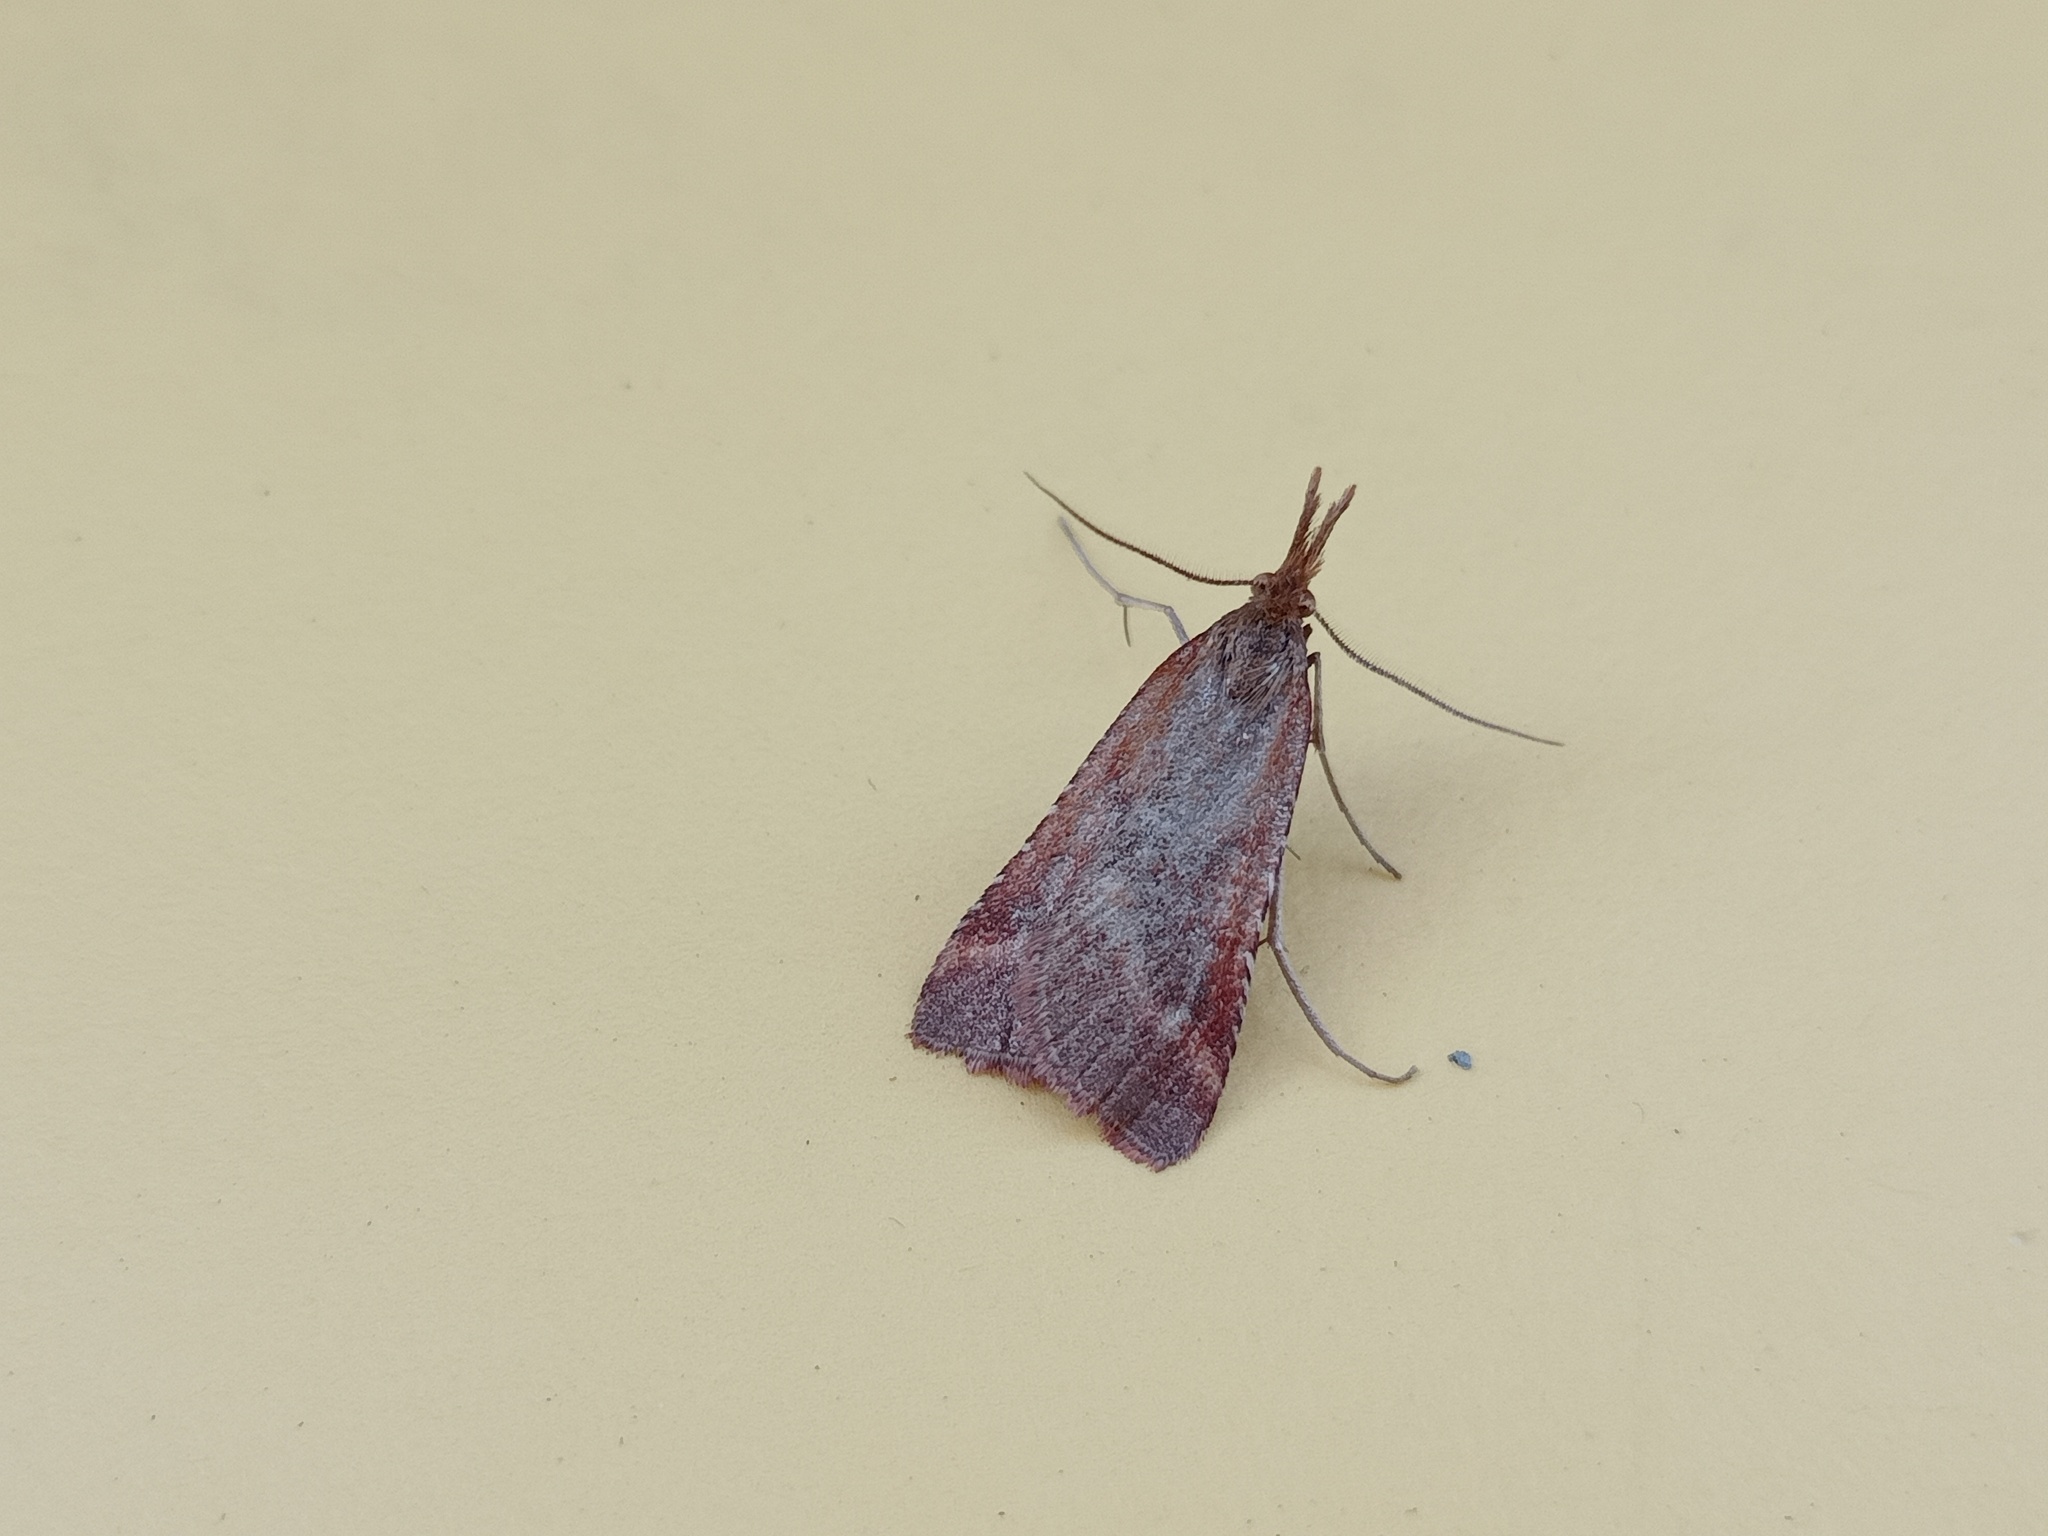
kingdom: Animalia
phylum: Arthropoda
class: Insecta
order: Lepidoptera
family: Pyralidae
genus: Synaphe
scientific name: Synaphe punctalis
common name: Long-legged tabby
